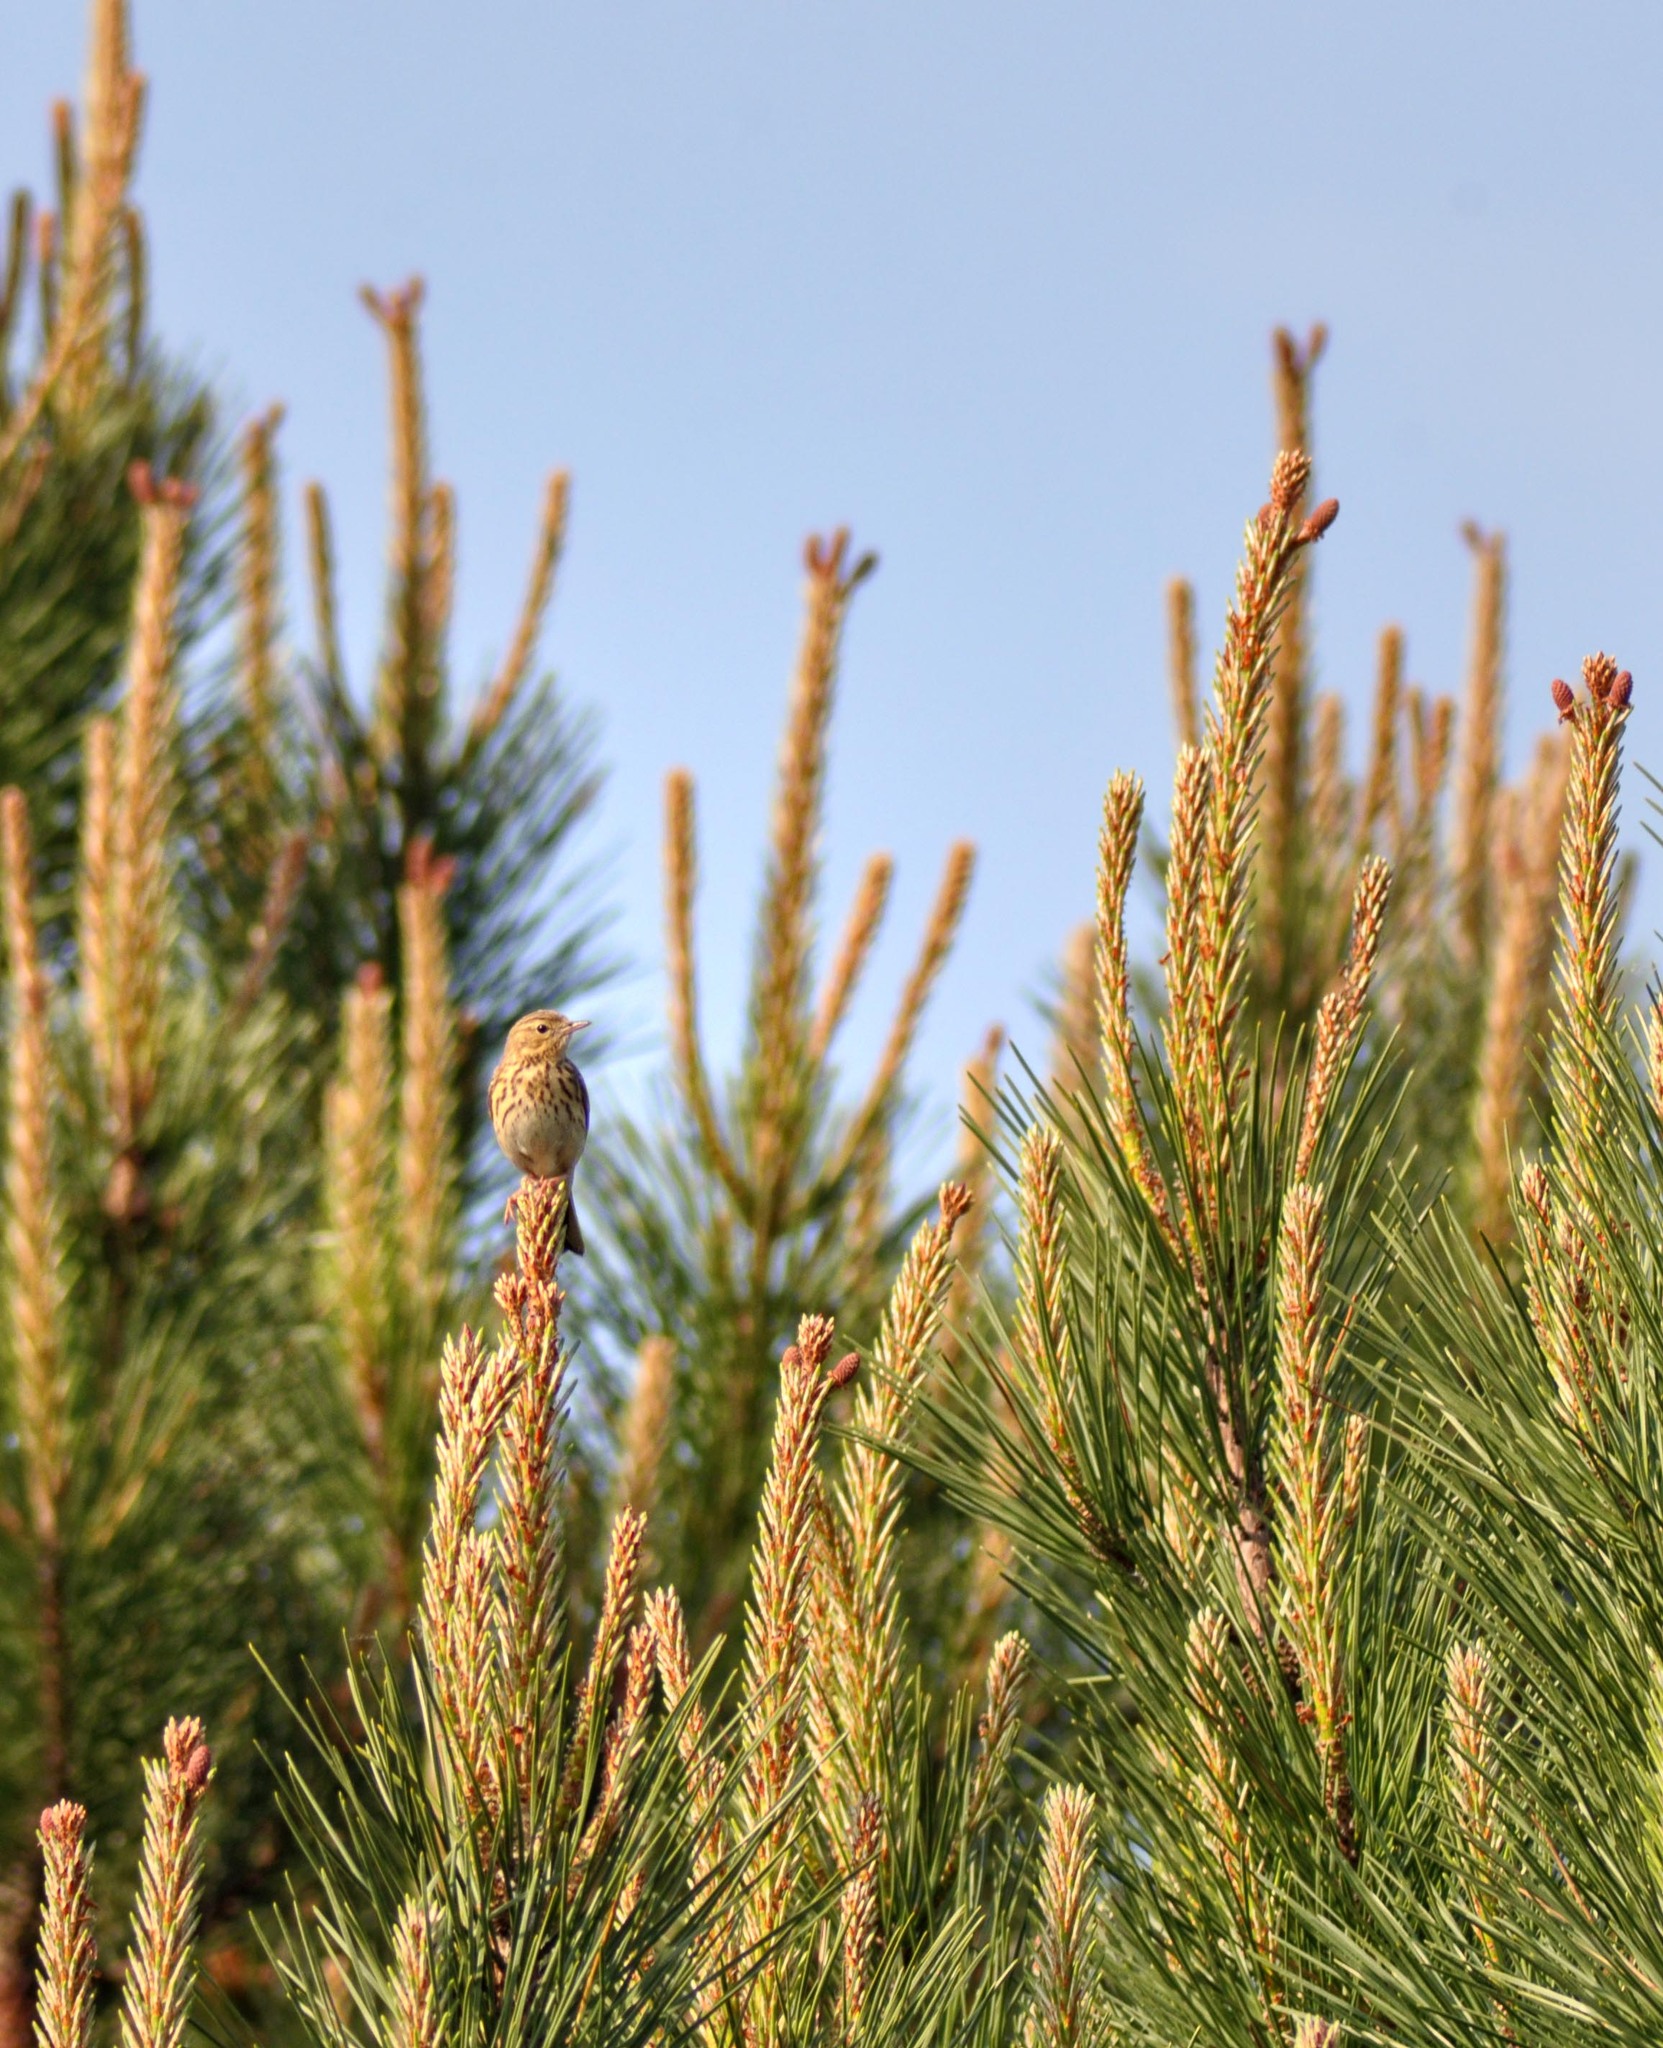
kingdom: Animalia
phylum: Chordata
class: Aves
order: Passeriformes
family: Motacillidae
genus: Anthus
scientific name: Anthus trivialis
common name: Tree pipit
